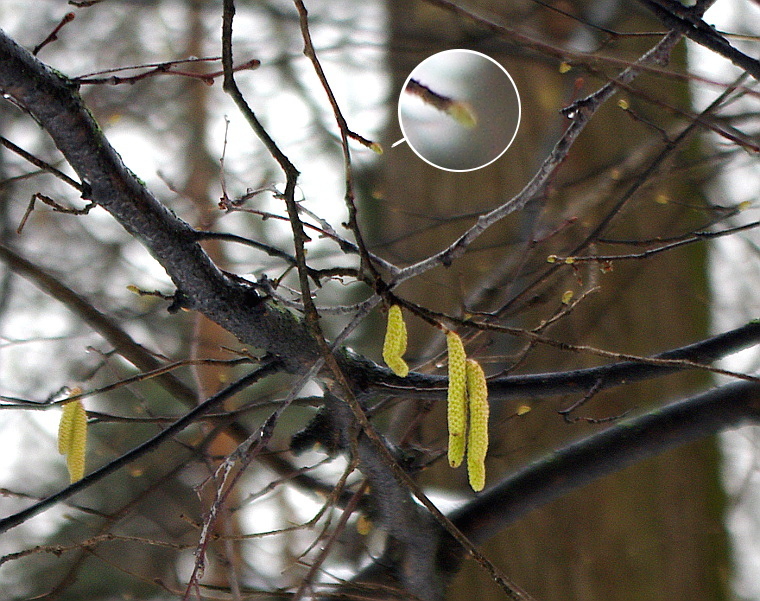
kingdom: Plantae
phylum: Tracheophyta
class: Magnoliopsida
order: Fagales
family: Betulaceae
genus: Corylus
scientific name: Corylus avellana
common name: European hazel
